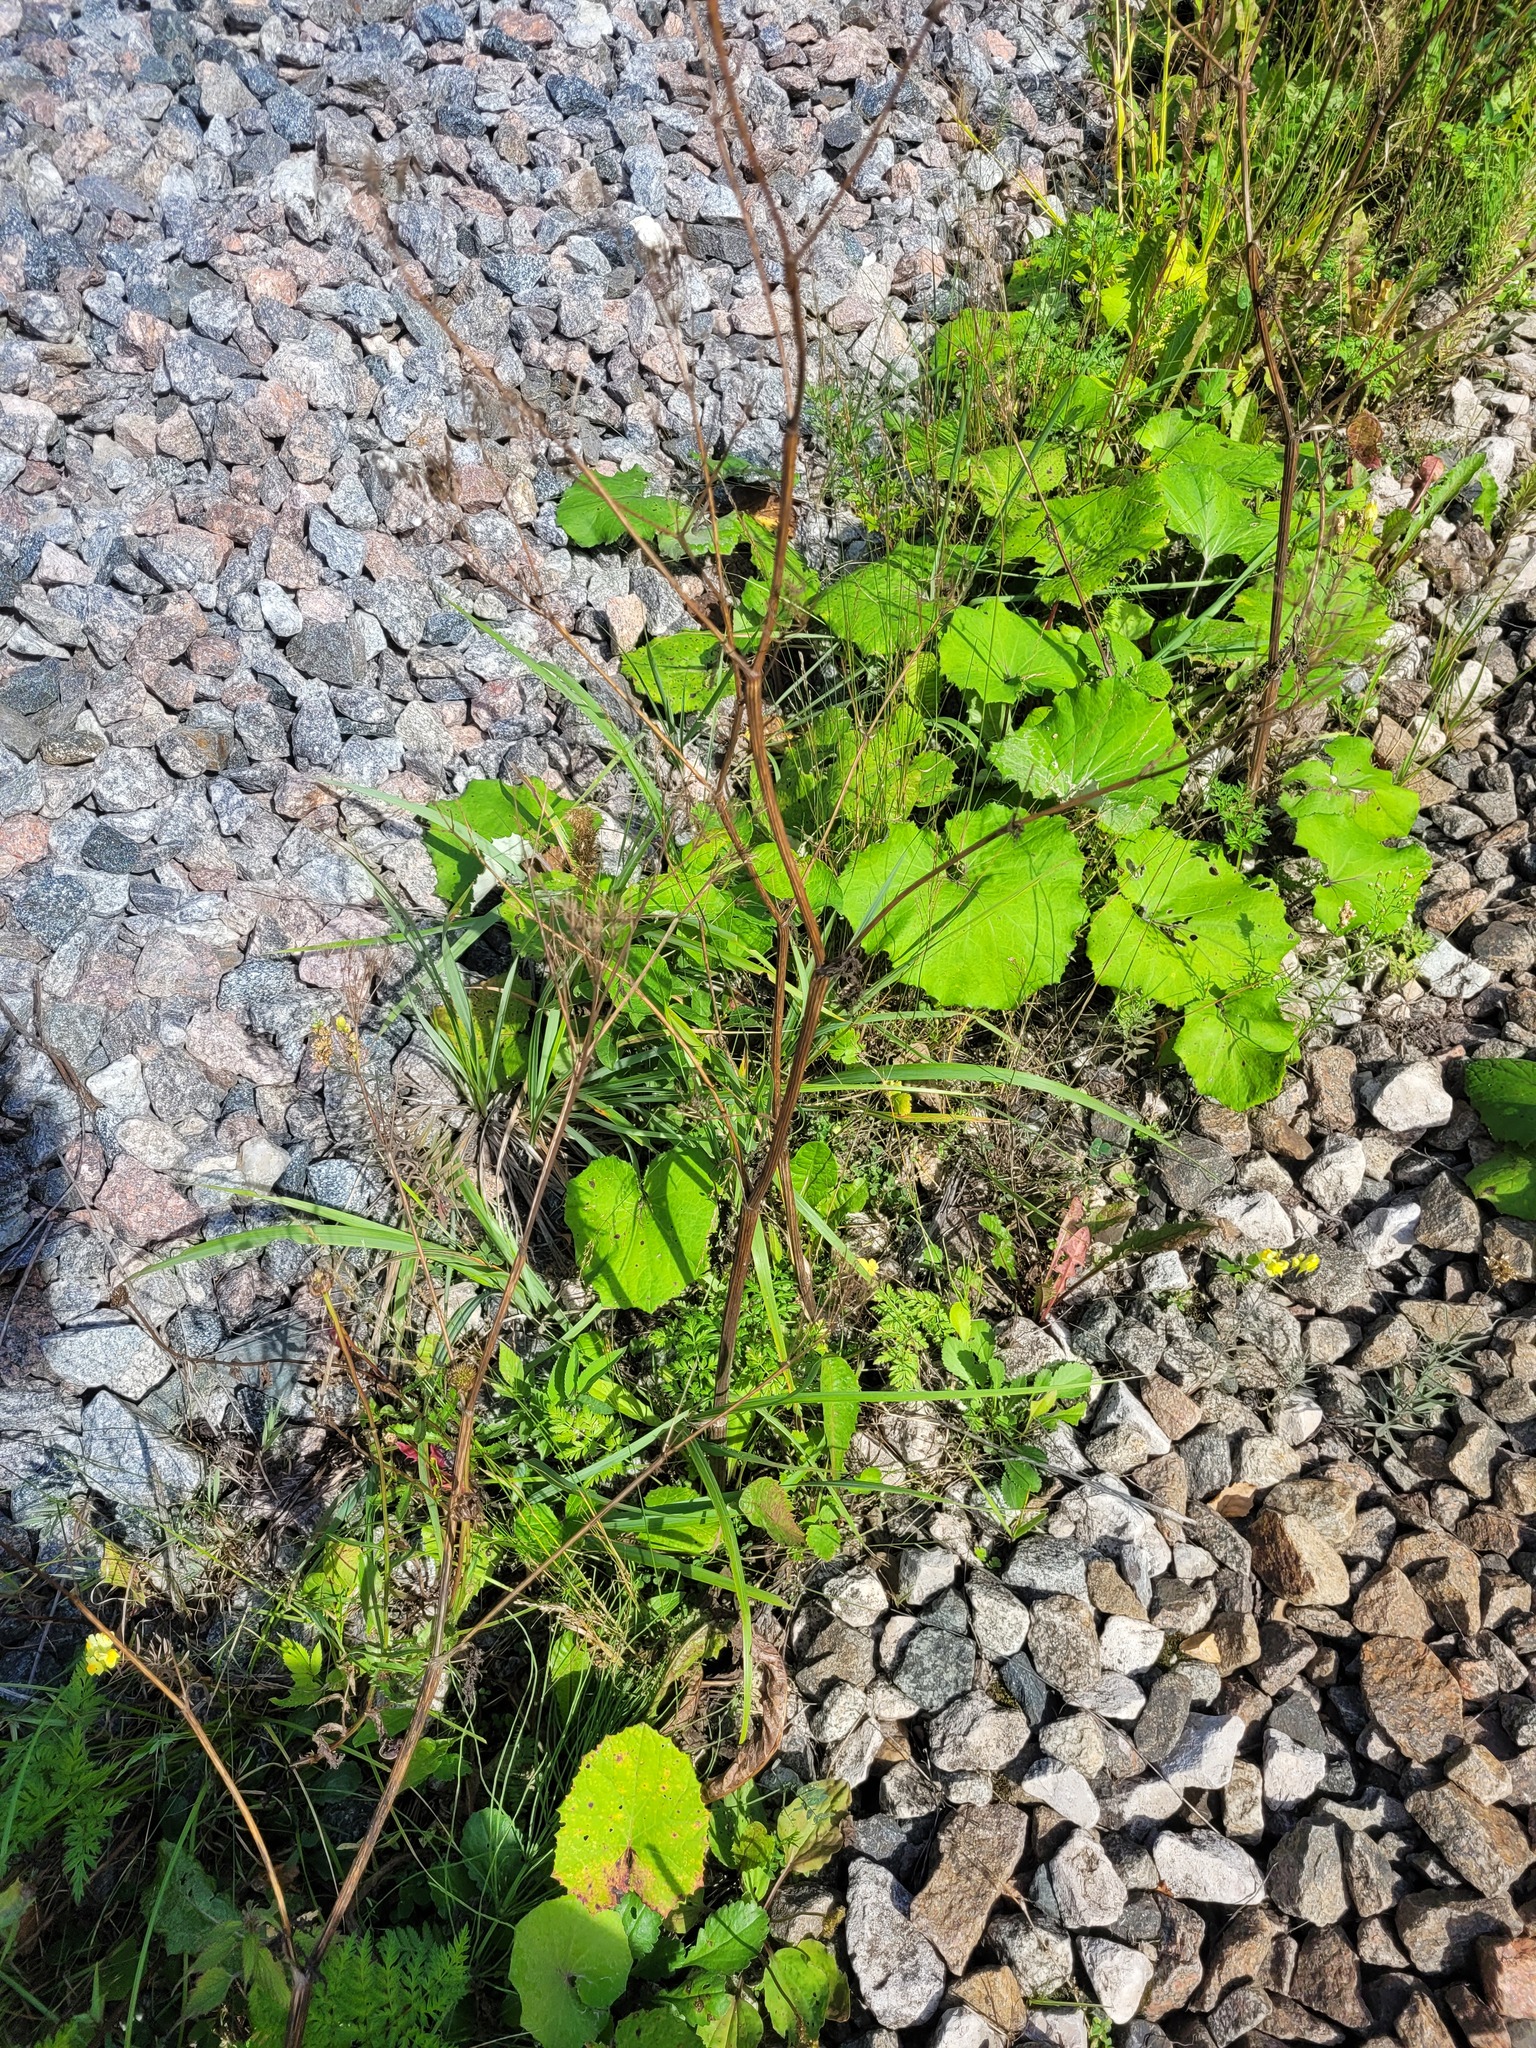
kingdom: Plantae
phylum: Tracheophyta
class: Magnoliopsida
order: Apiales
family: Apiaceae
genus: Anthriscus
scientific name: Anthriscus sylvestris
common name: Cow parsley
